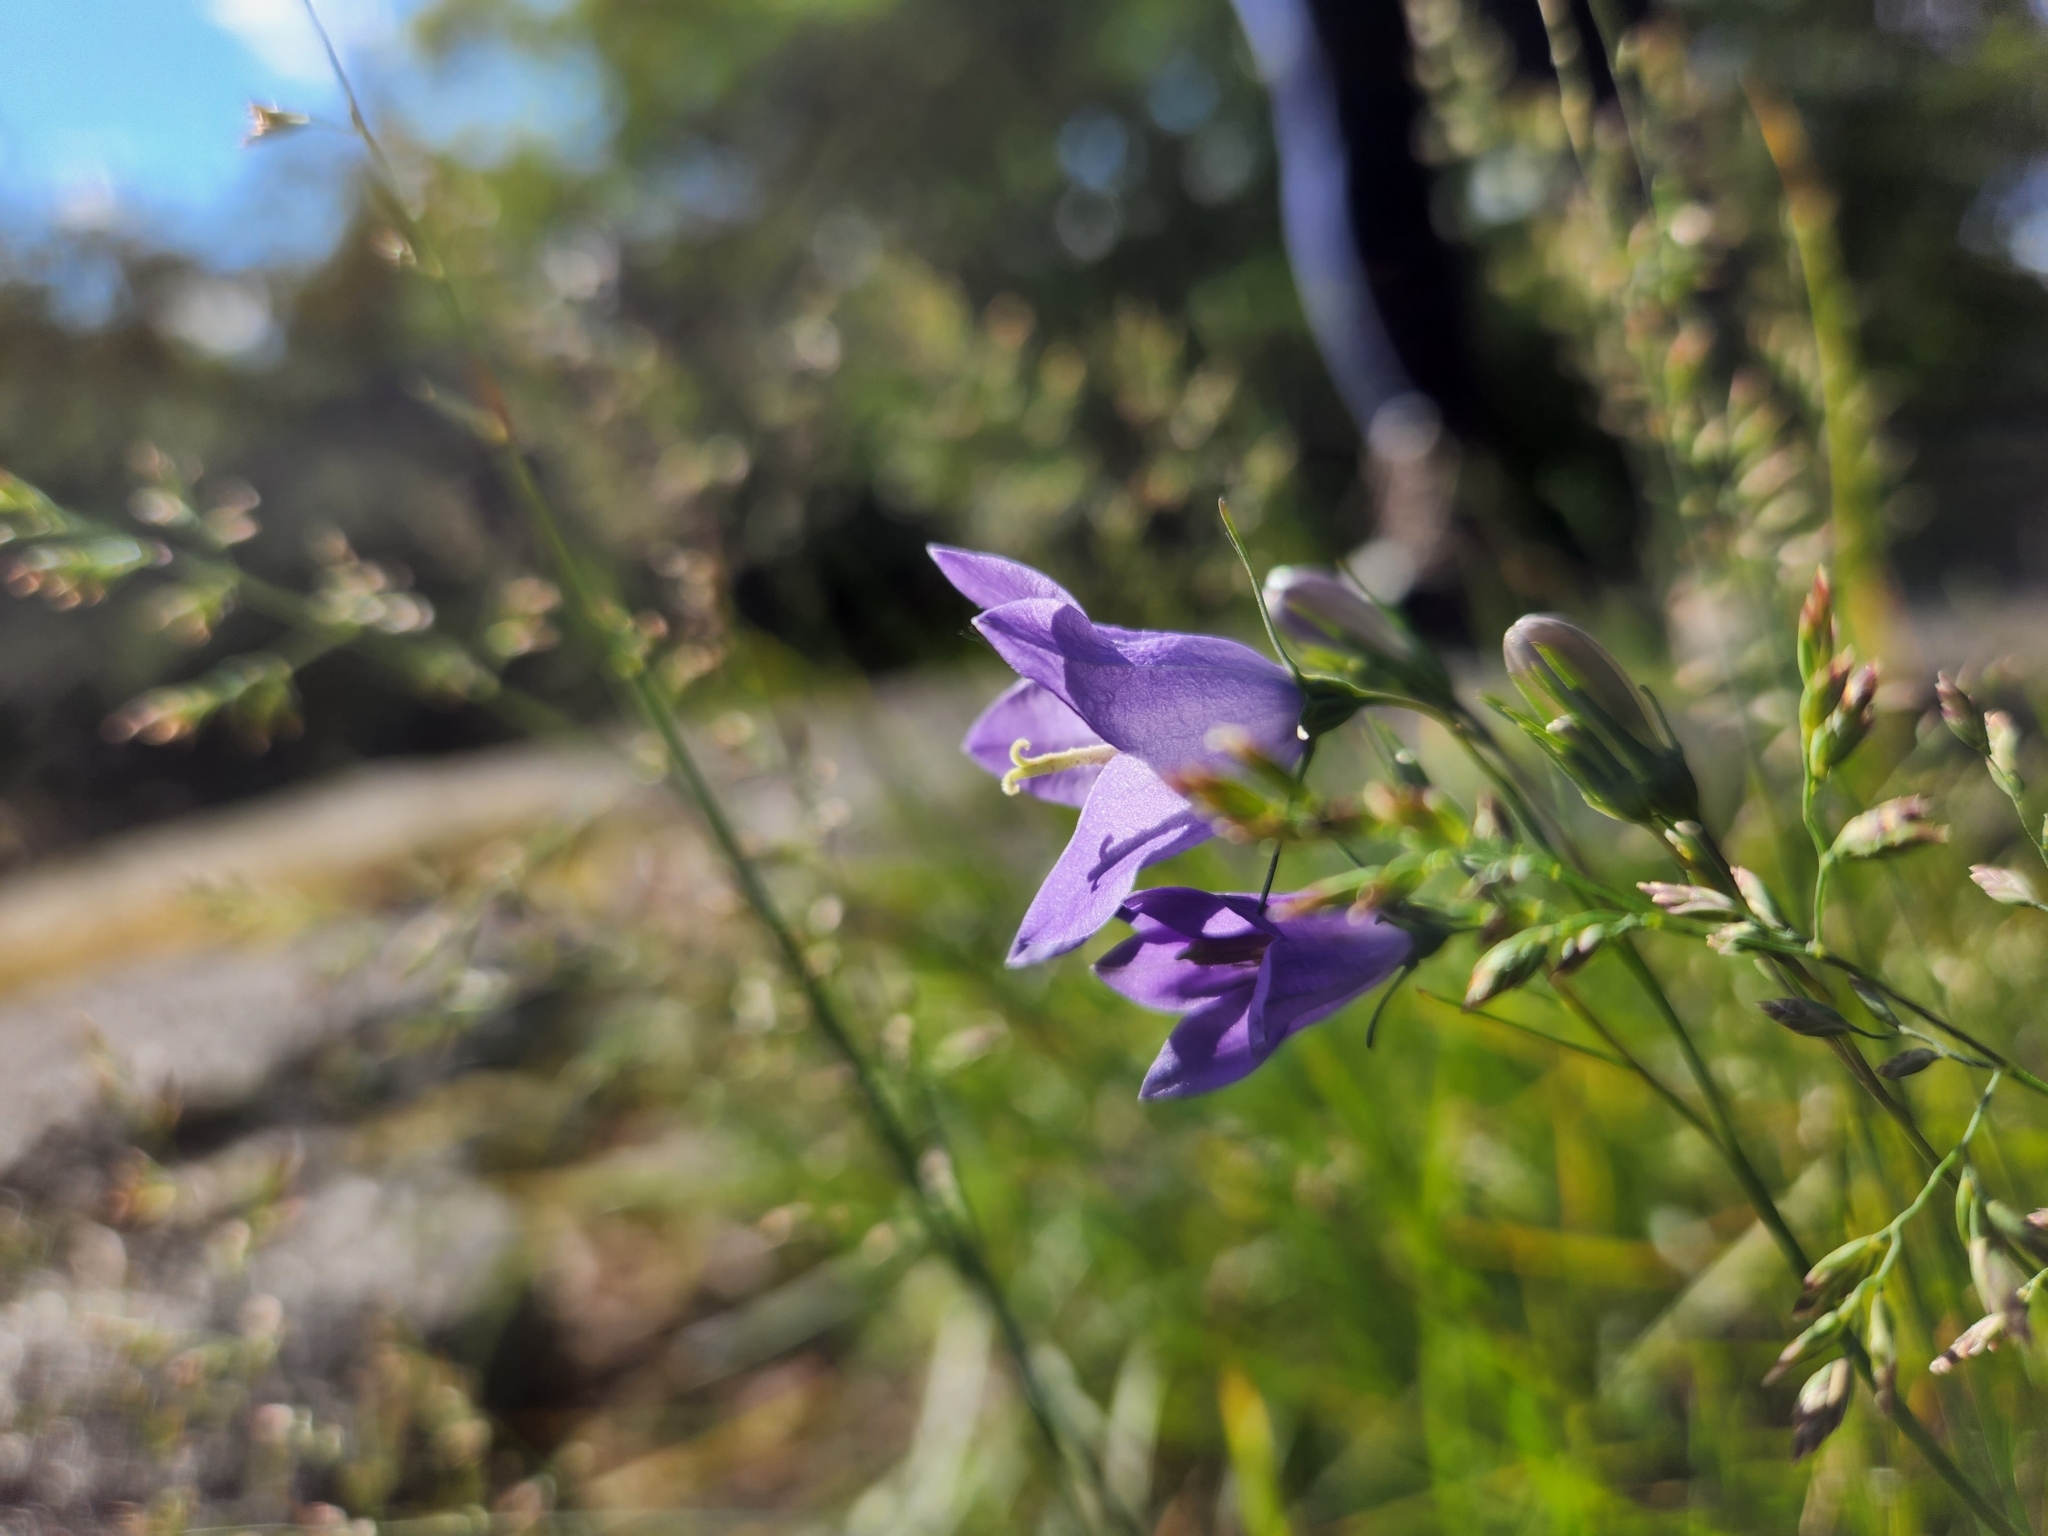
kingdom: Plantae
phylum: Tracheophyta
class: Magnoliopsida
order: Asterales
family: Campanulaceae
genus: Campanula
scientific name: Campanula intercedens
